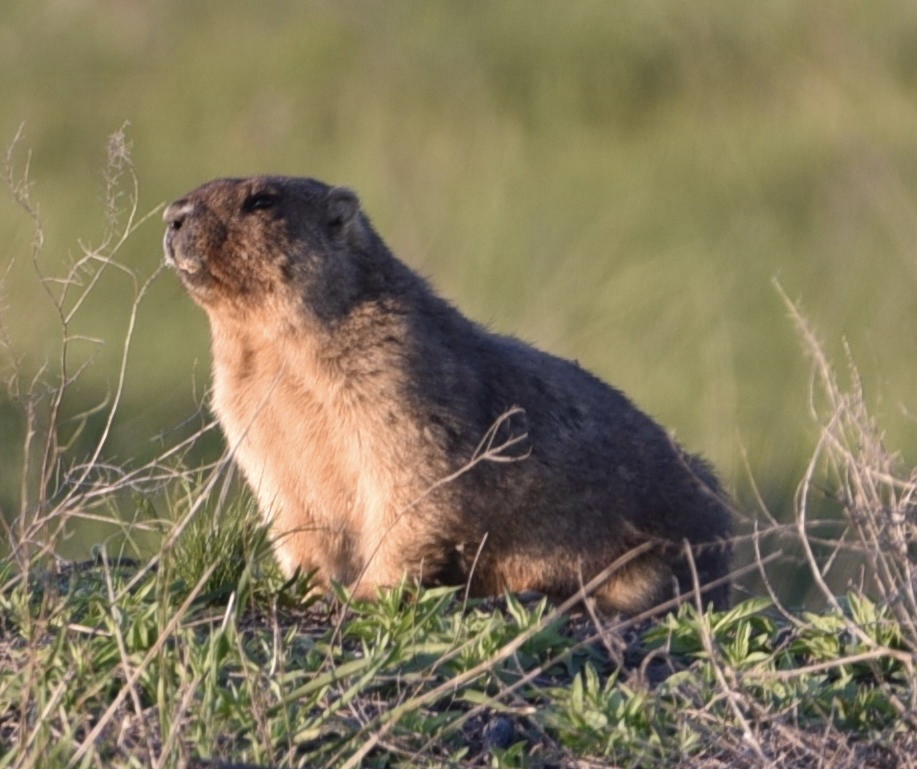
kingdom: Animalia
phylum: Chordata
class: Mammalia
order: Rodentia
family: Sciuridae
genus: Marmota
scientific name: Marmota bobak
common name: Bobak marmot
